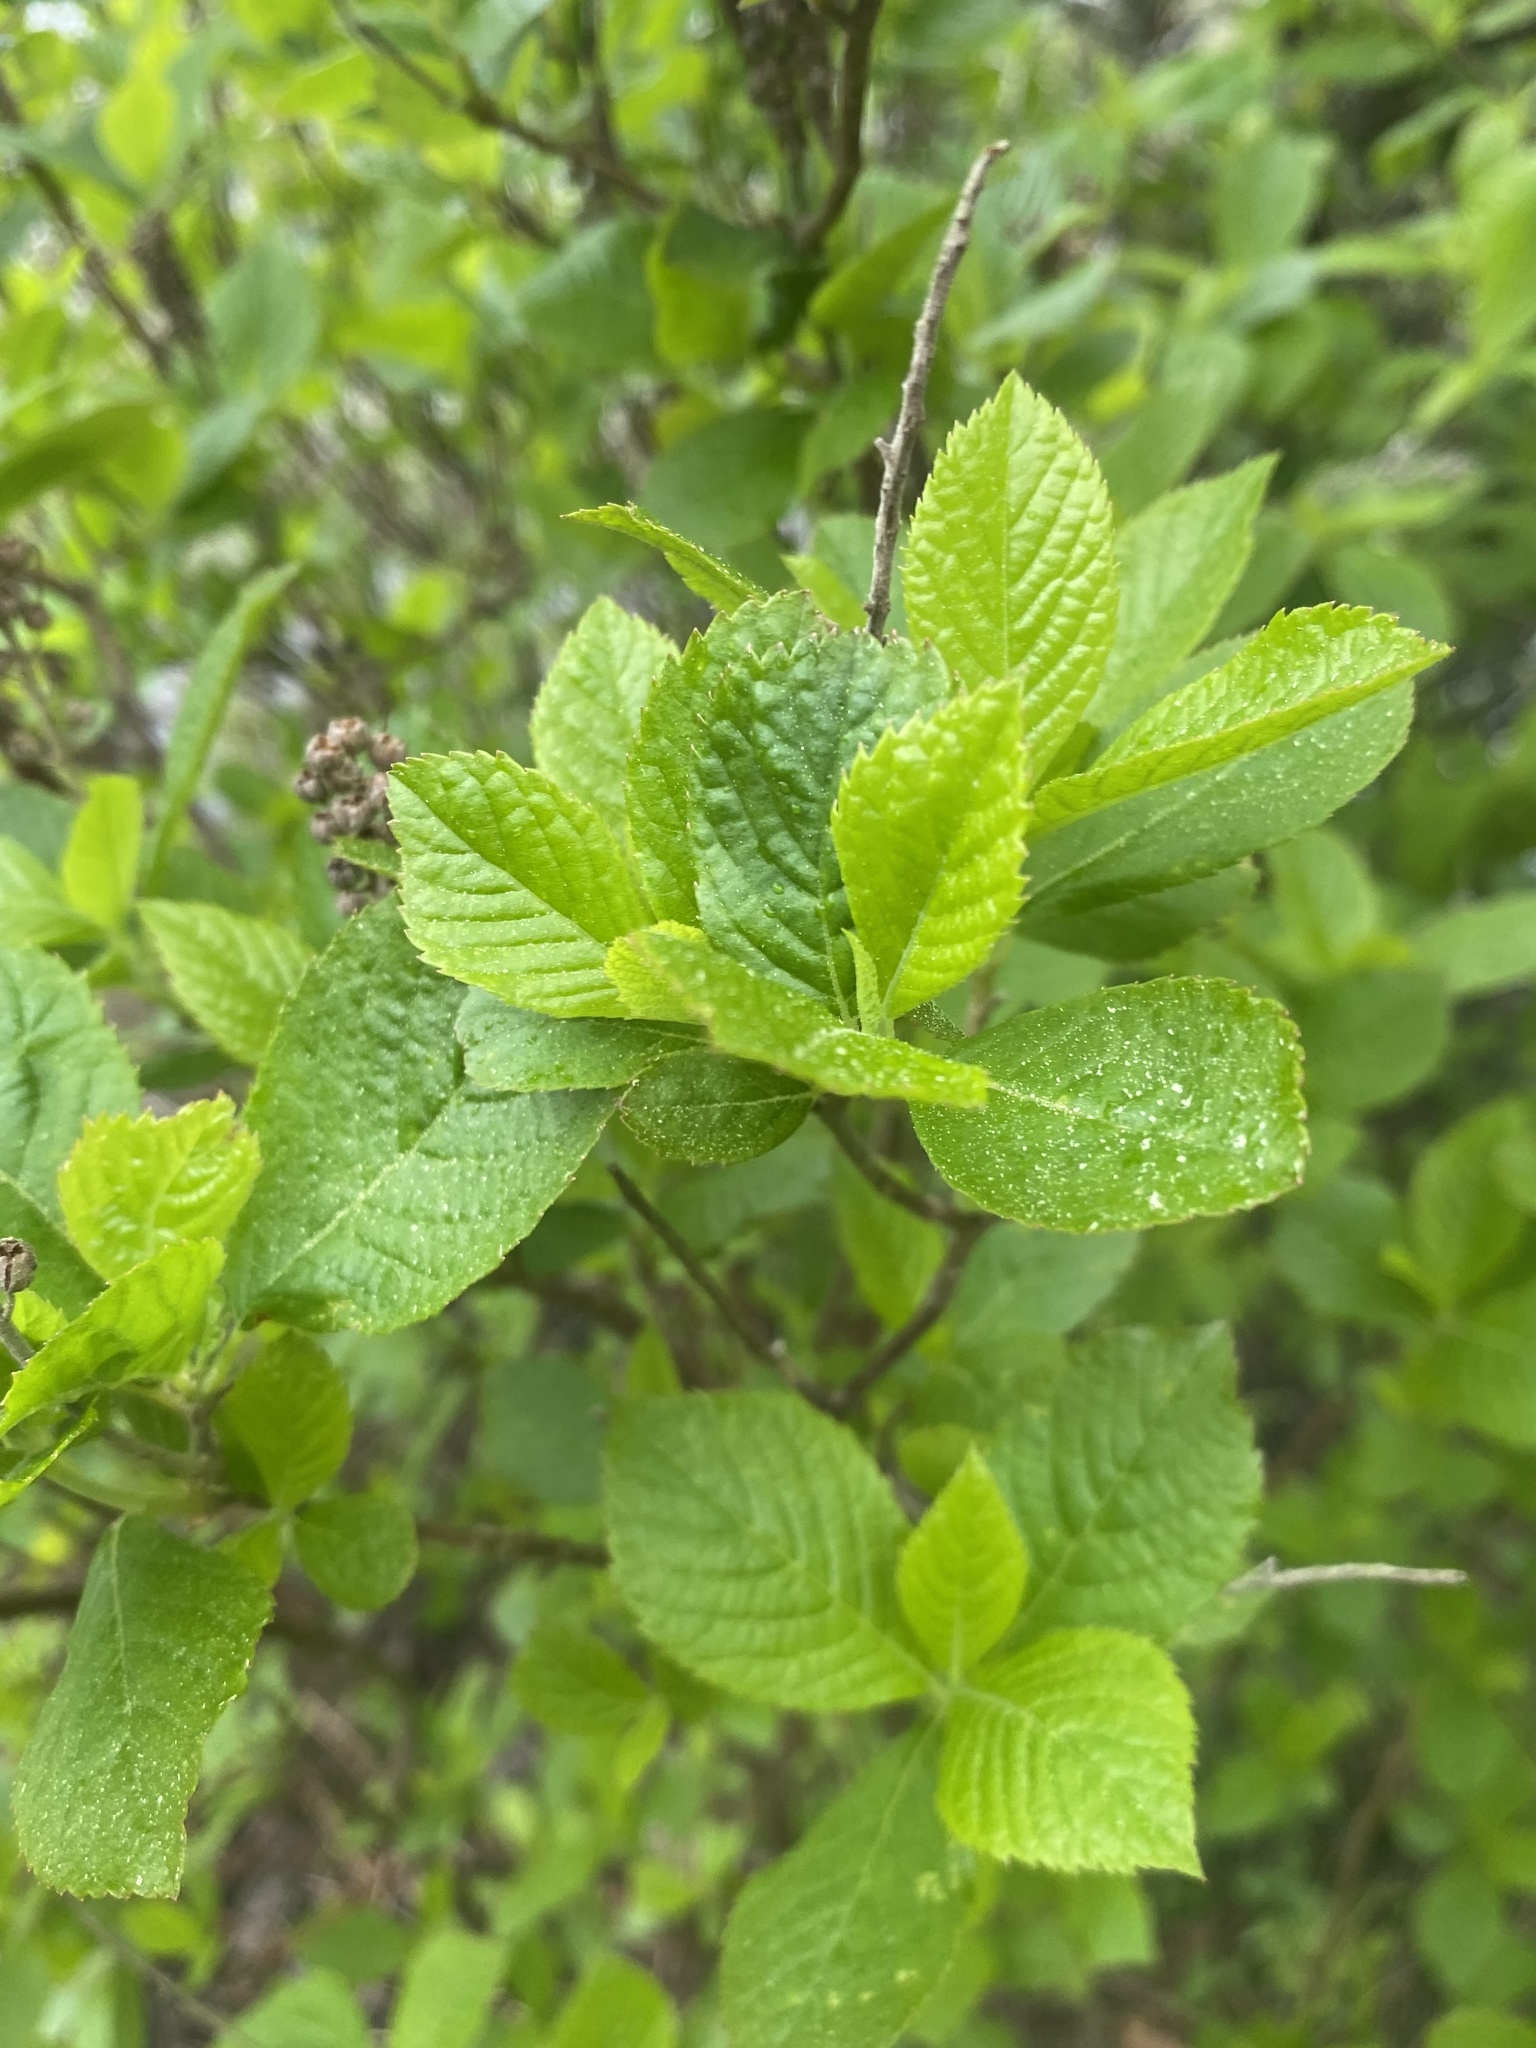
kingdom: Plantae
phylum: Tracheophyta
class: Magnoliopsida
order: Ericales
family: Clethraceae
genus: Clethra
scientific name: Clethra alnifolia
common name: Sweet pepperbush
